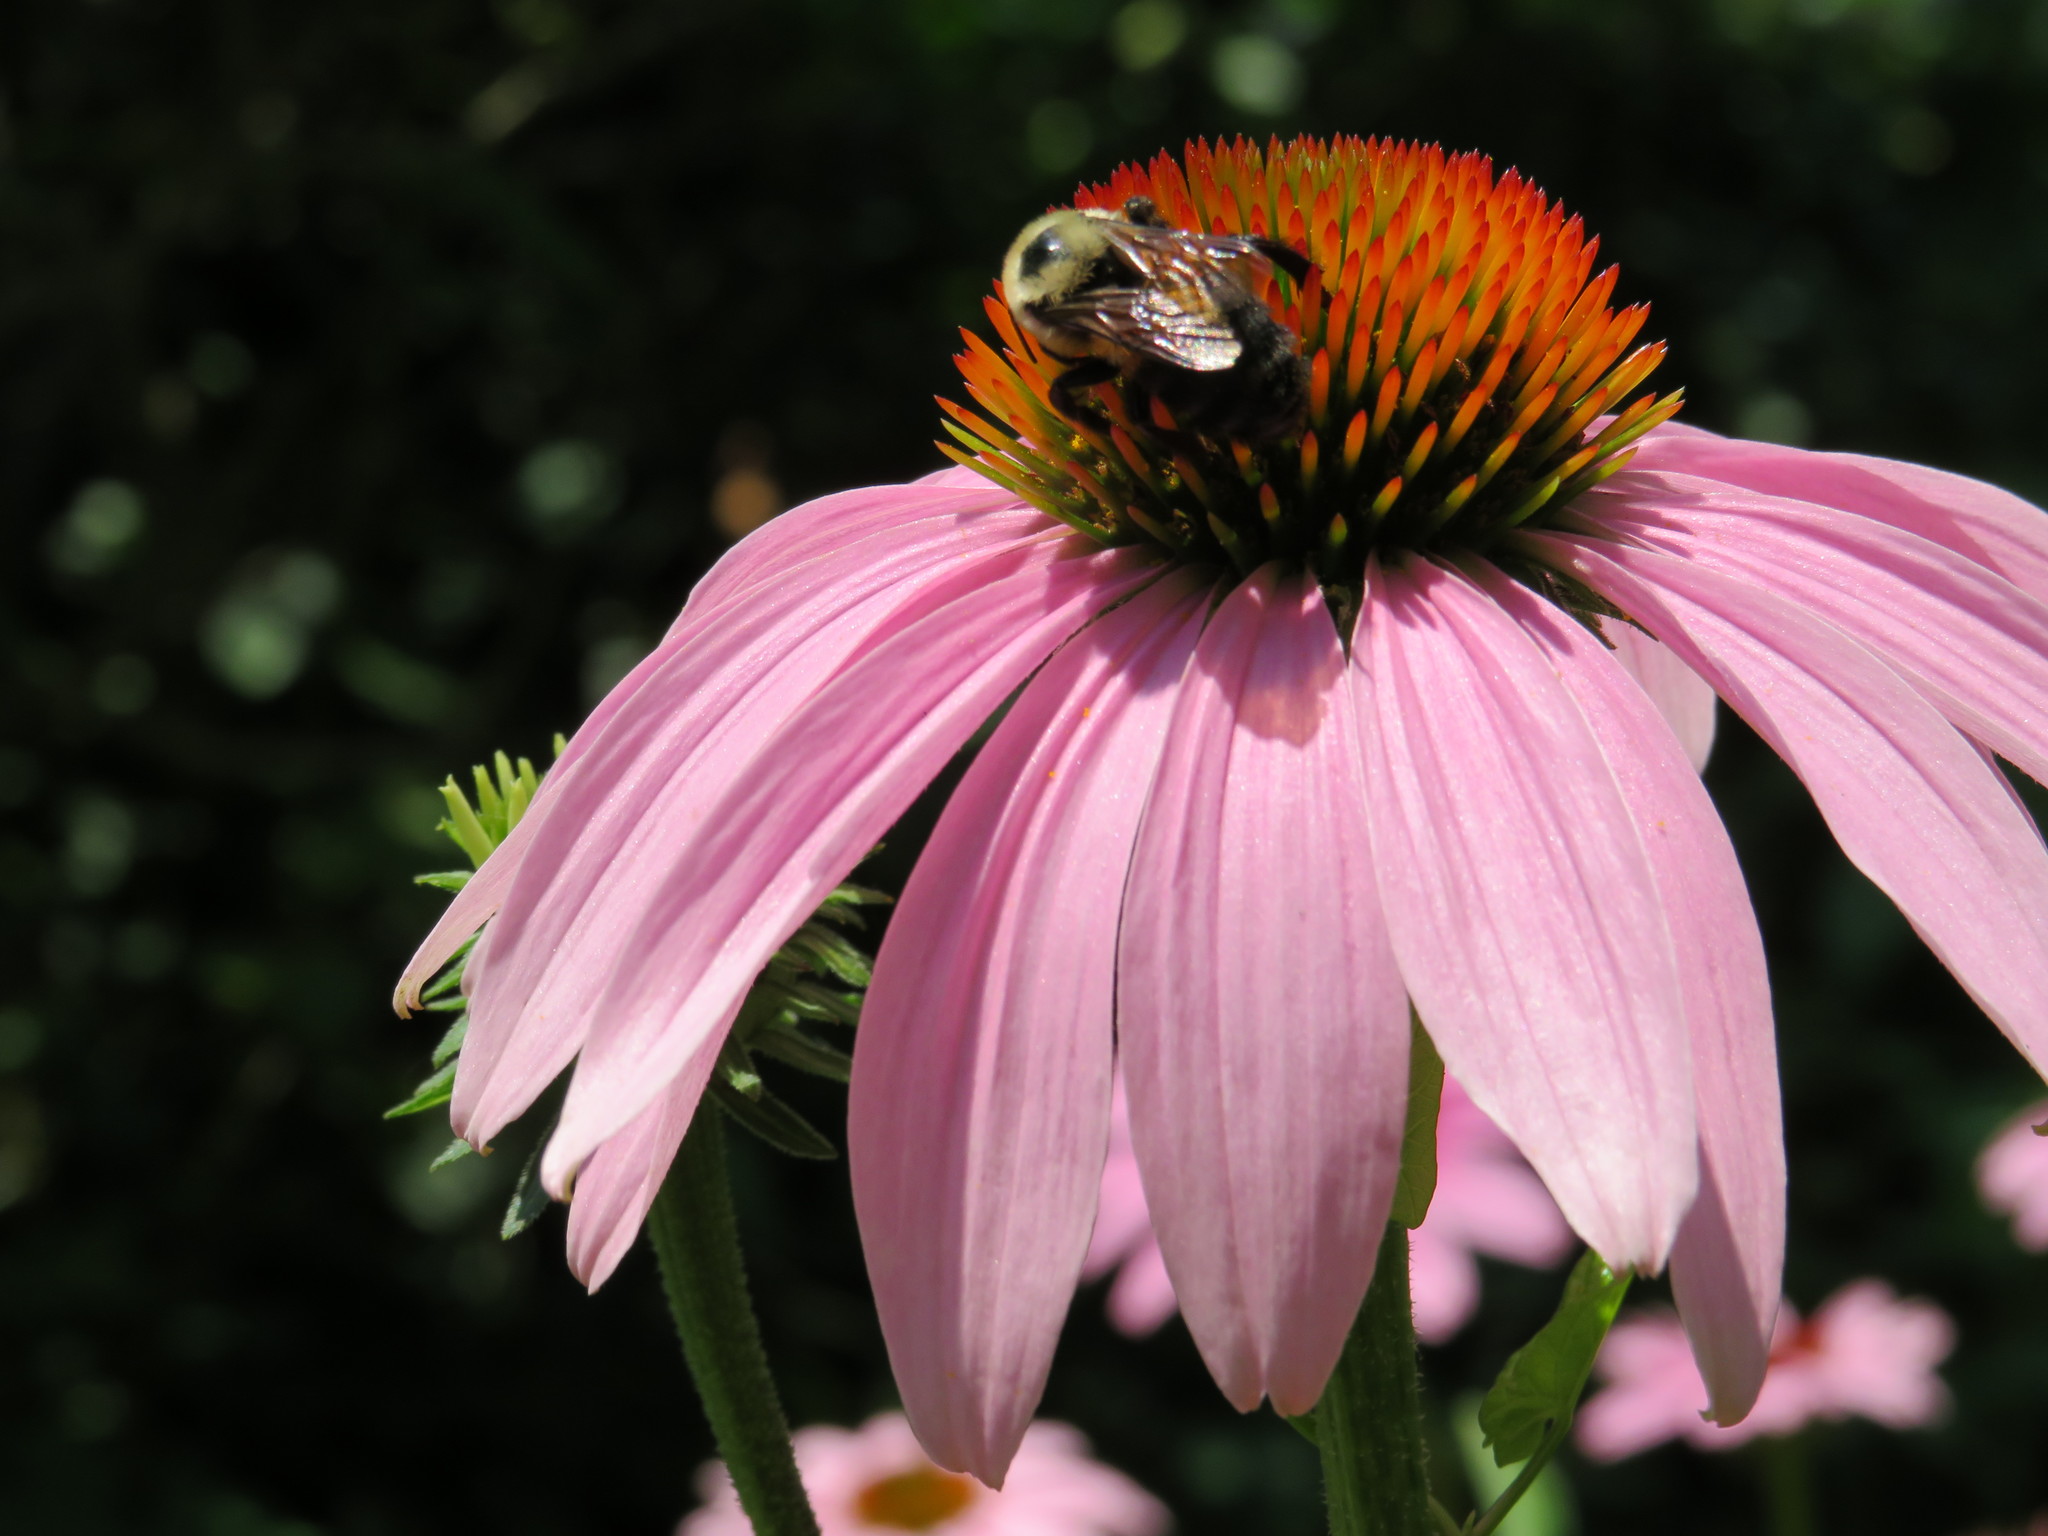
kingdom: Animalia
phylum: Arthropoda
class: Insecta
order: Hymenoptera
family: Apidae
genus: Bombus
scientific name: Bombus griseocollis
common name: Brown-belted bumble bee
